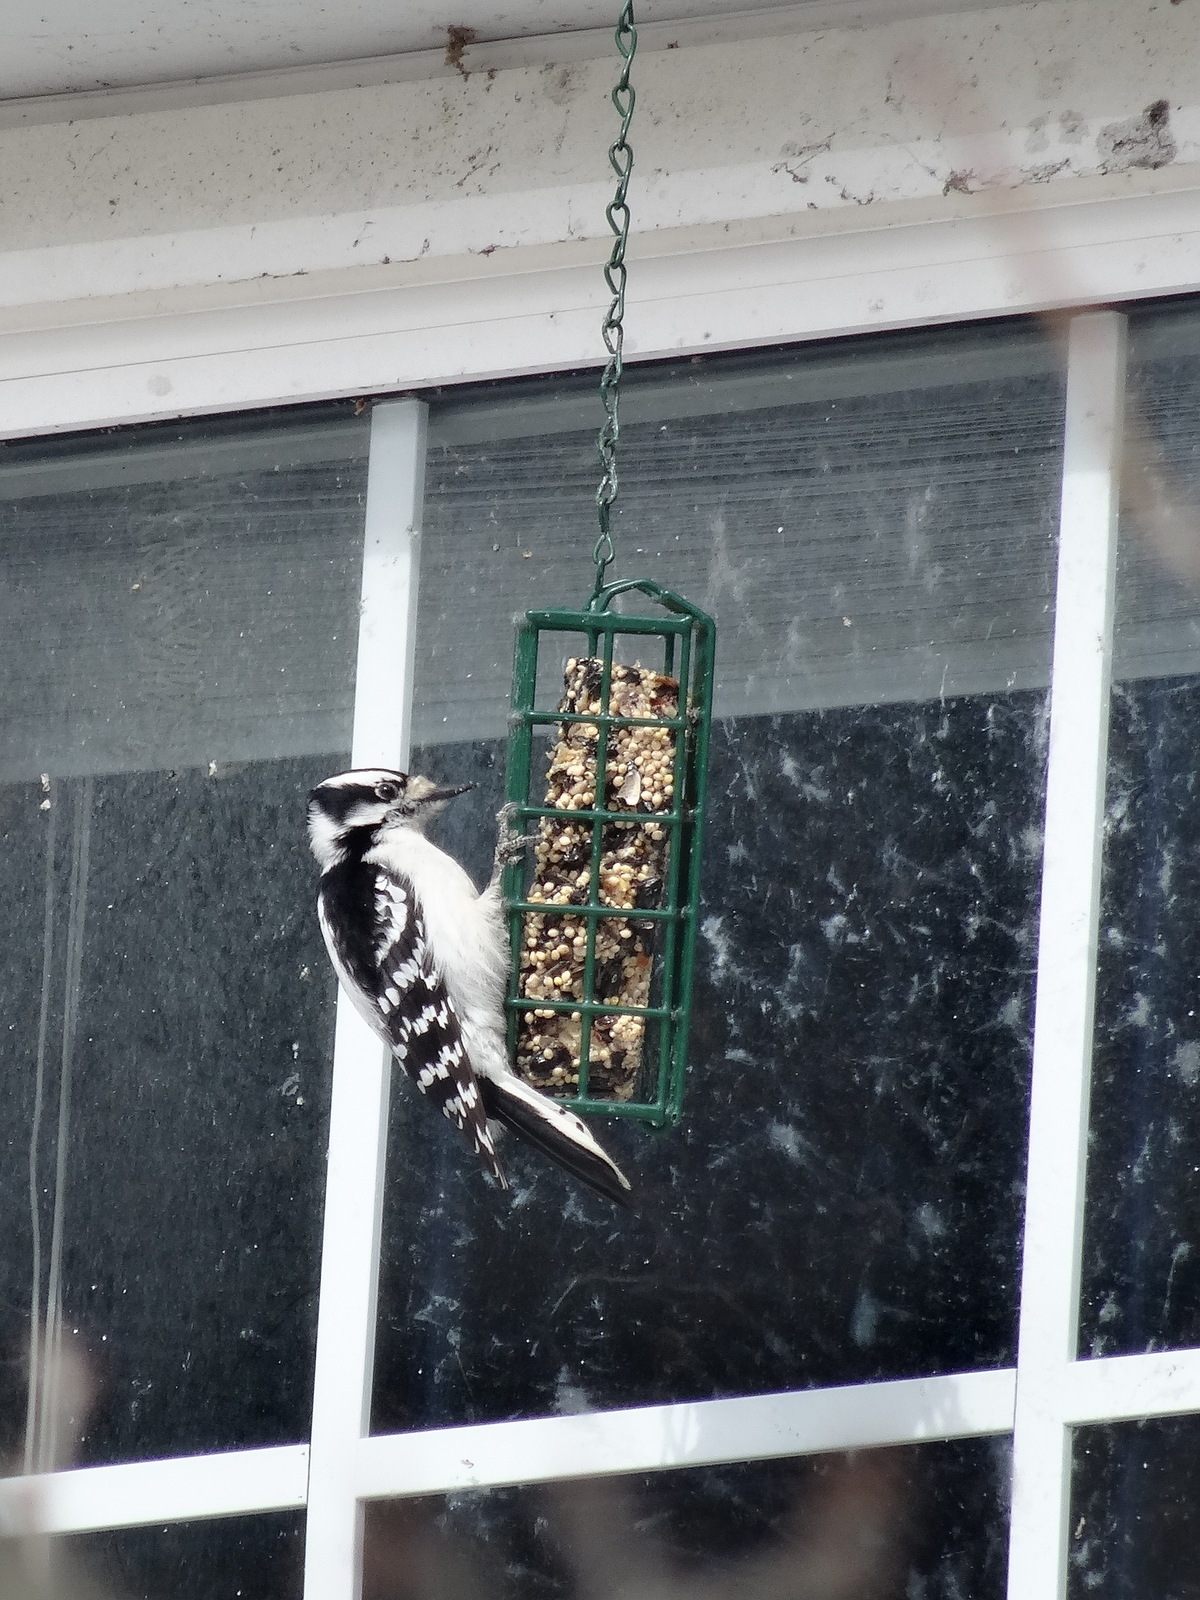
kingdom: Animalia
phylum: Chordata
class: Aves
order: Piciformes
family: Picidae
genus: Dryobates
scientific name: Dryobates pubescens
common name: Downy woodpecker
